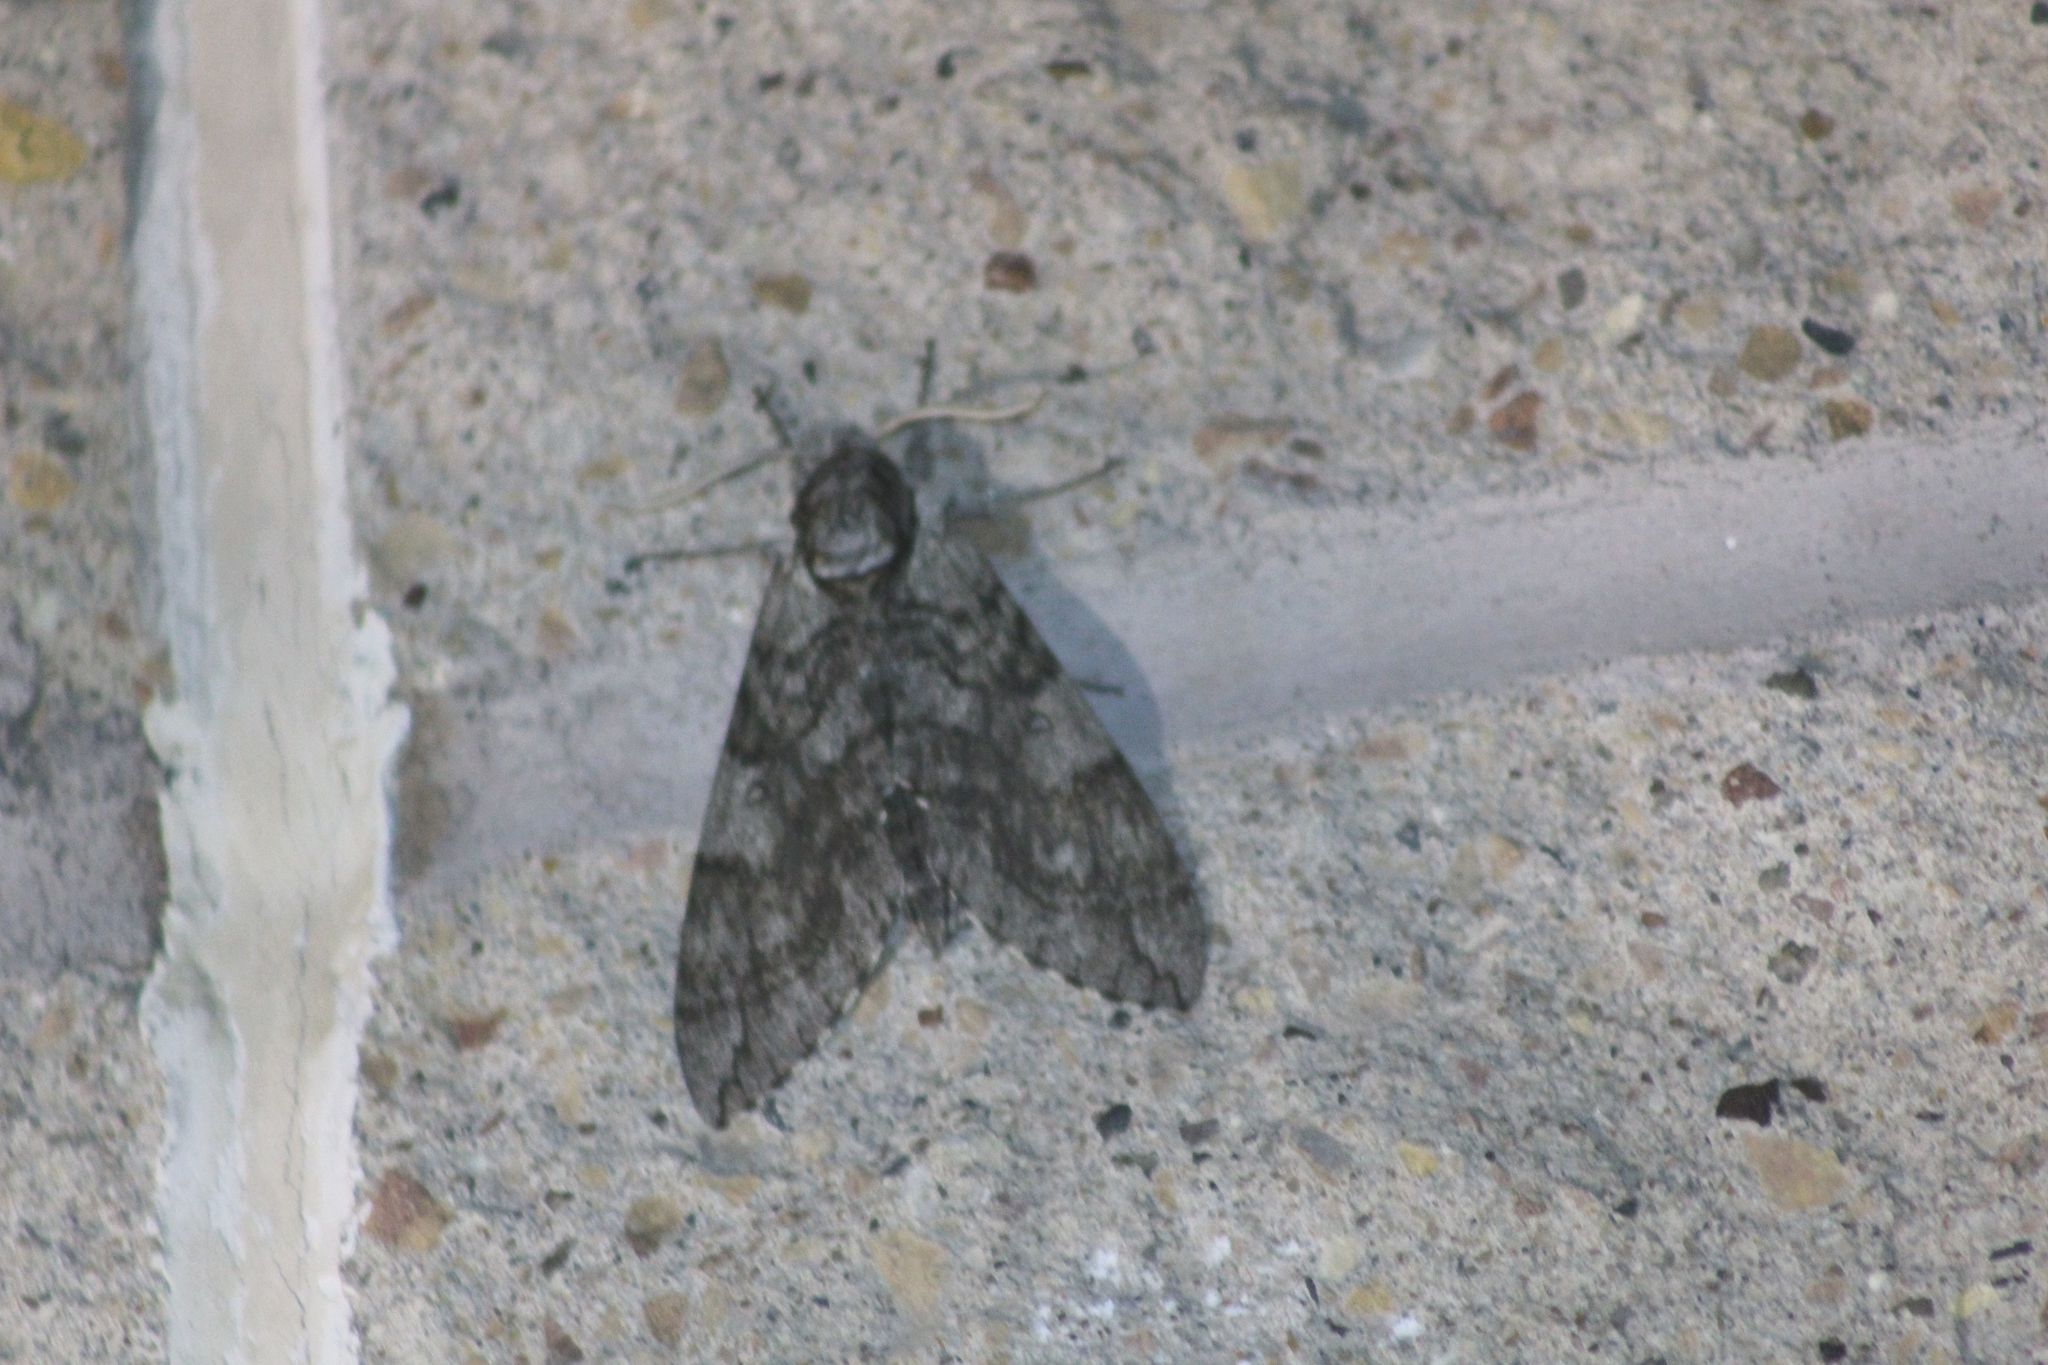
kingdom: Animalia
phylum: Arthropoda
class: Insecta
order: Lepidoptera
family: Sphingidae
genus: Ceratomia
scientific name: Ceratomia undulosa
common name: Waved sphinx
